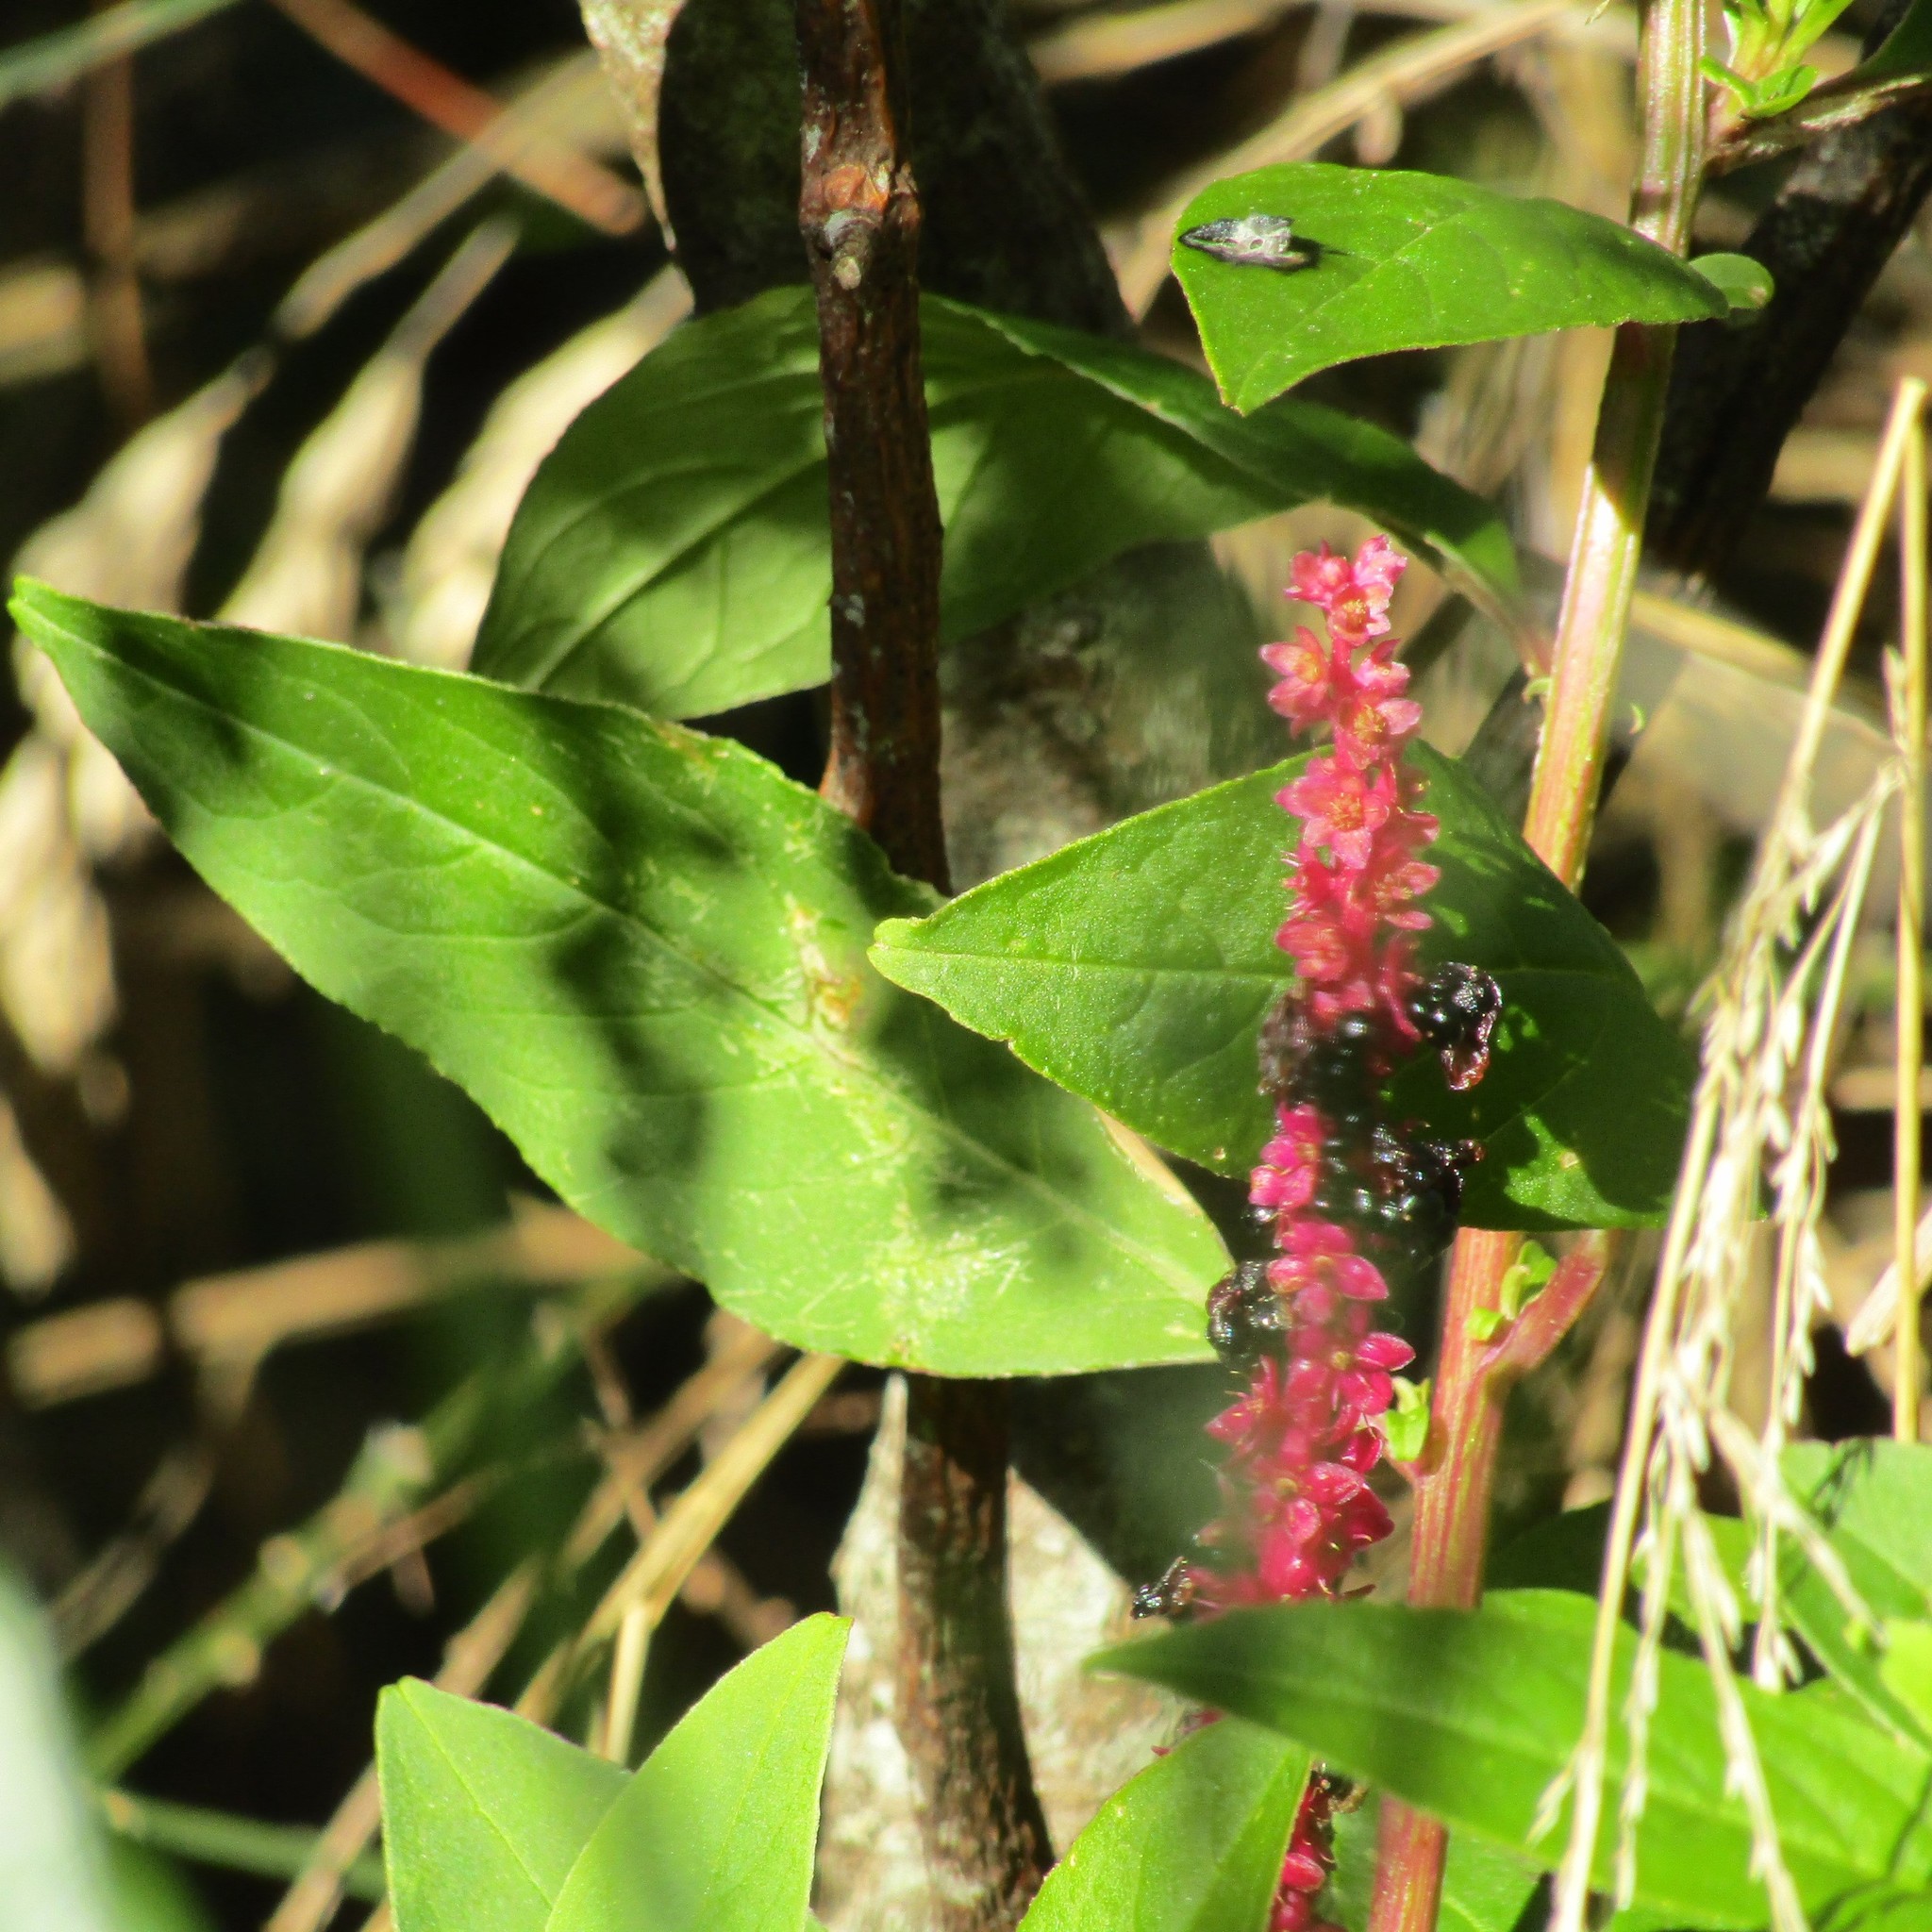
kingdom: Plantae
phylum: Tracheophyta
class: Magnoliopsida
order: Caryophyllales
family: Phytolaccaceae
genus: Phytolacca
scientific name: Phytolacca icosandra
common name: Button pokeweed
